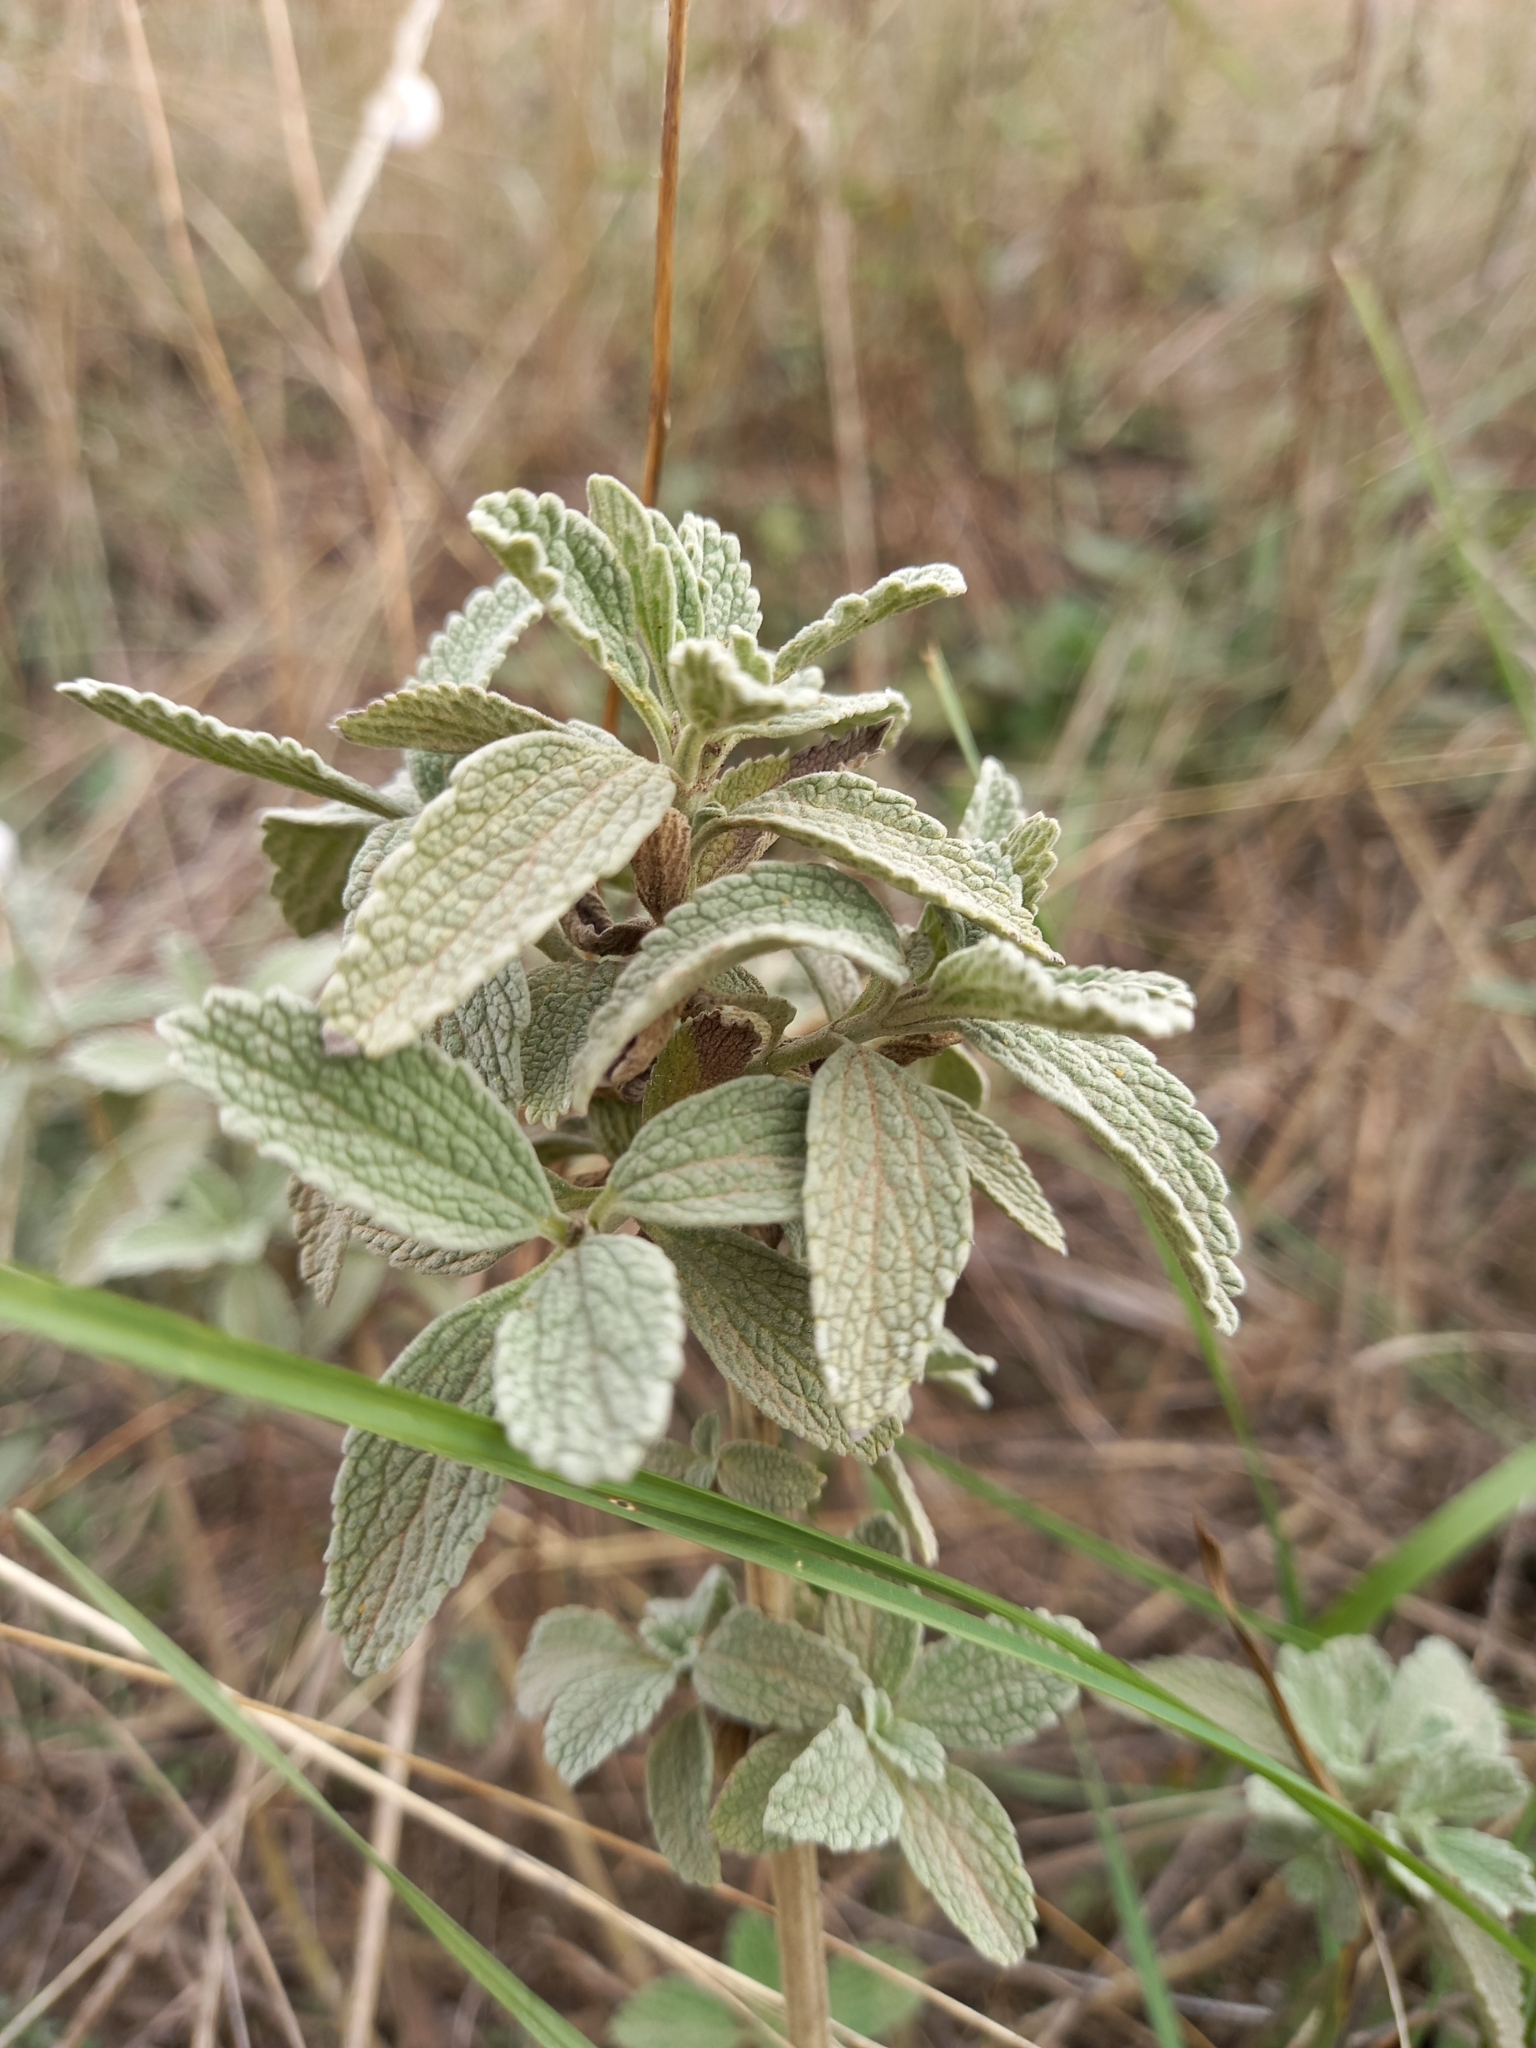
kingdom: Plantae
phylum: Tracheophyta
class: Magnoliopsida
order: Lamiales
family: Lamiaceae
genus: Marrubium
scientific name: Marrubium peregrinum
